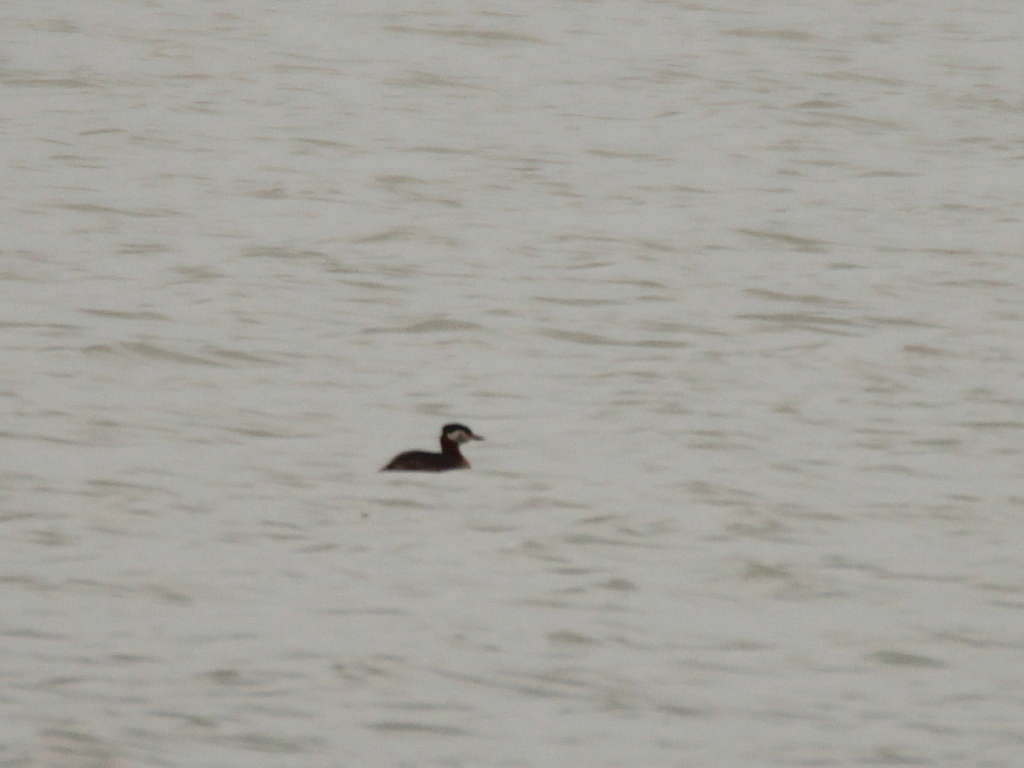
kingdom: Animalia
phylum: Chordata
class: Aves
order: Podicipediformes
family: Podicipedidae
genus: Podiceps
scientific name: Podiceps grisegena
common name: Red-necked grebe
